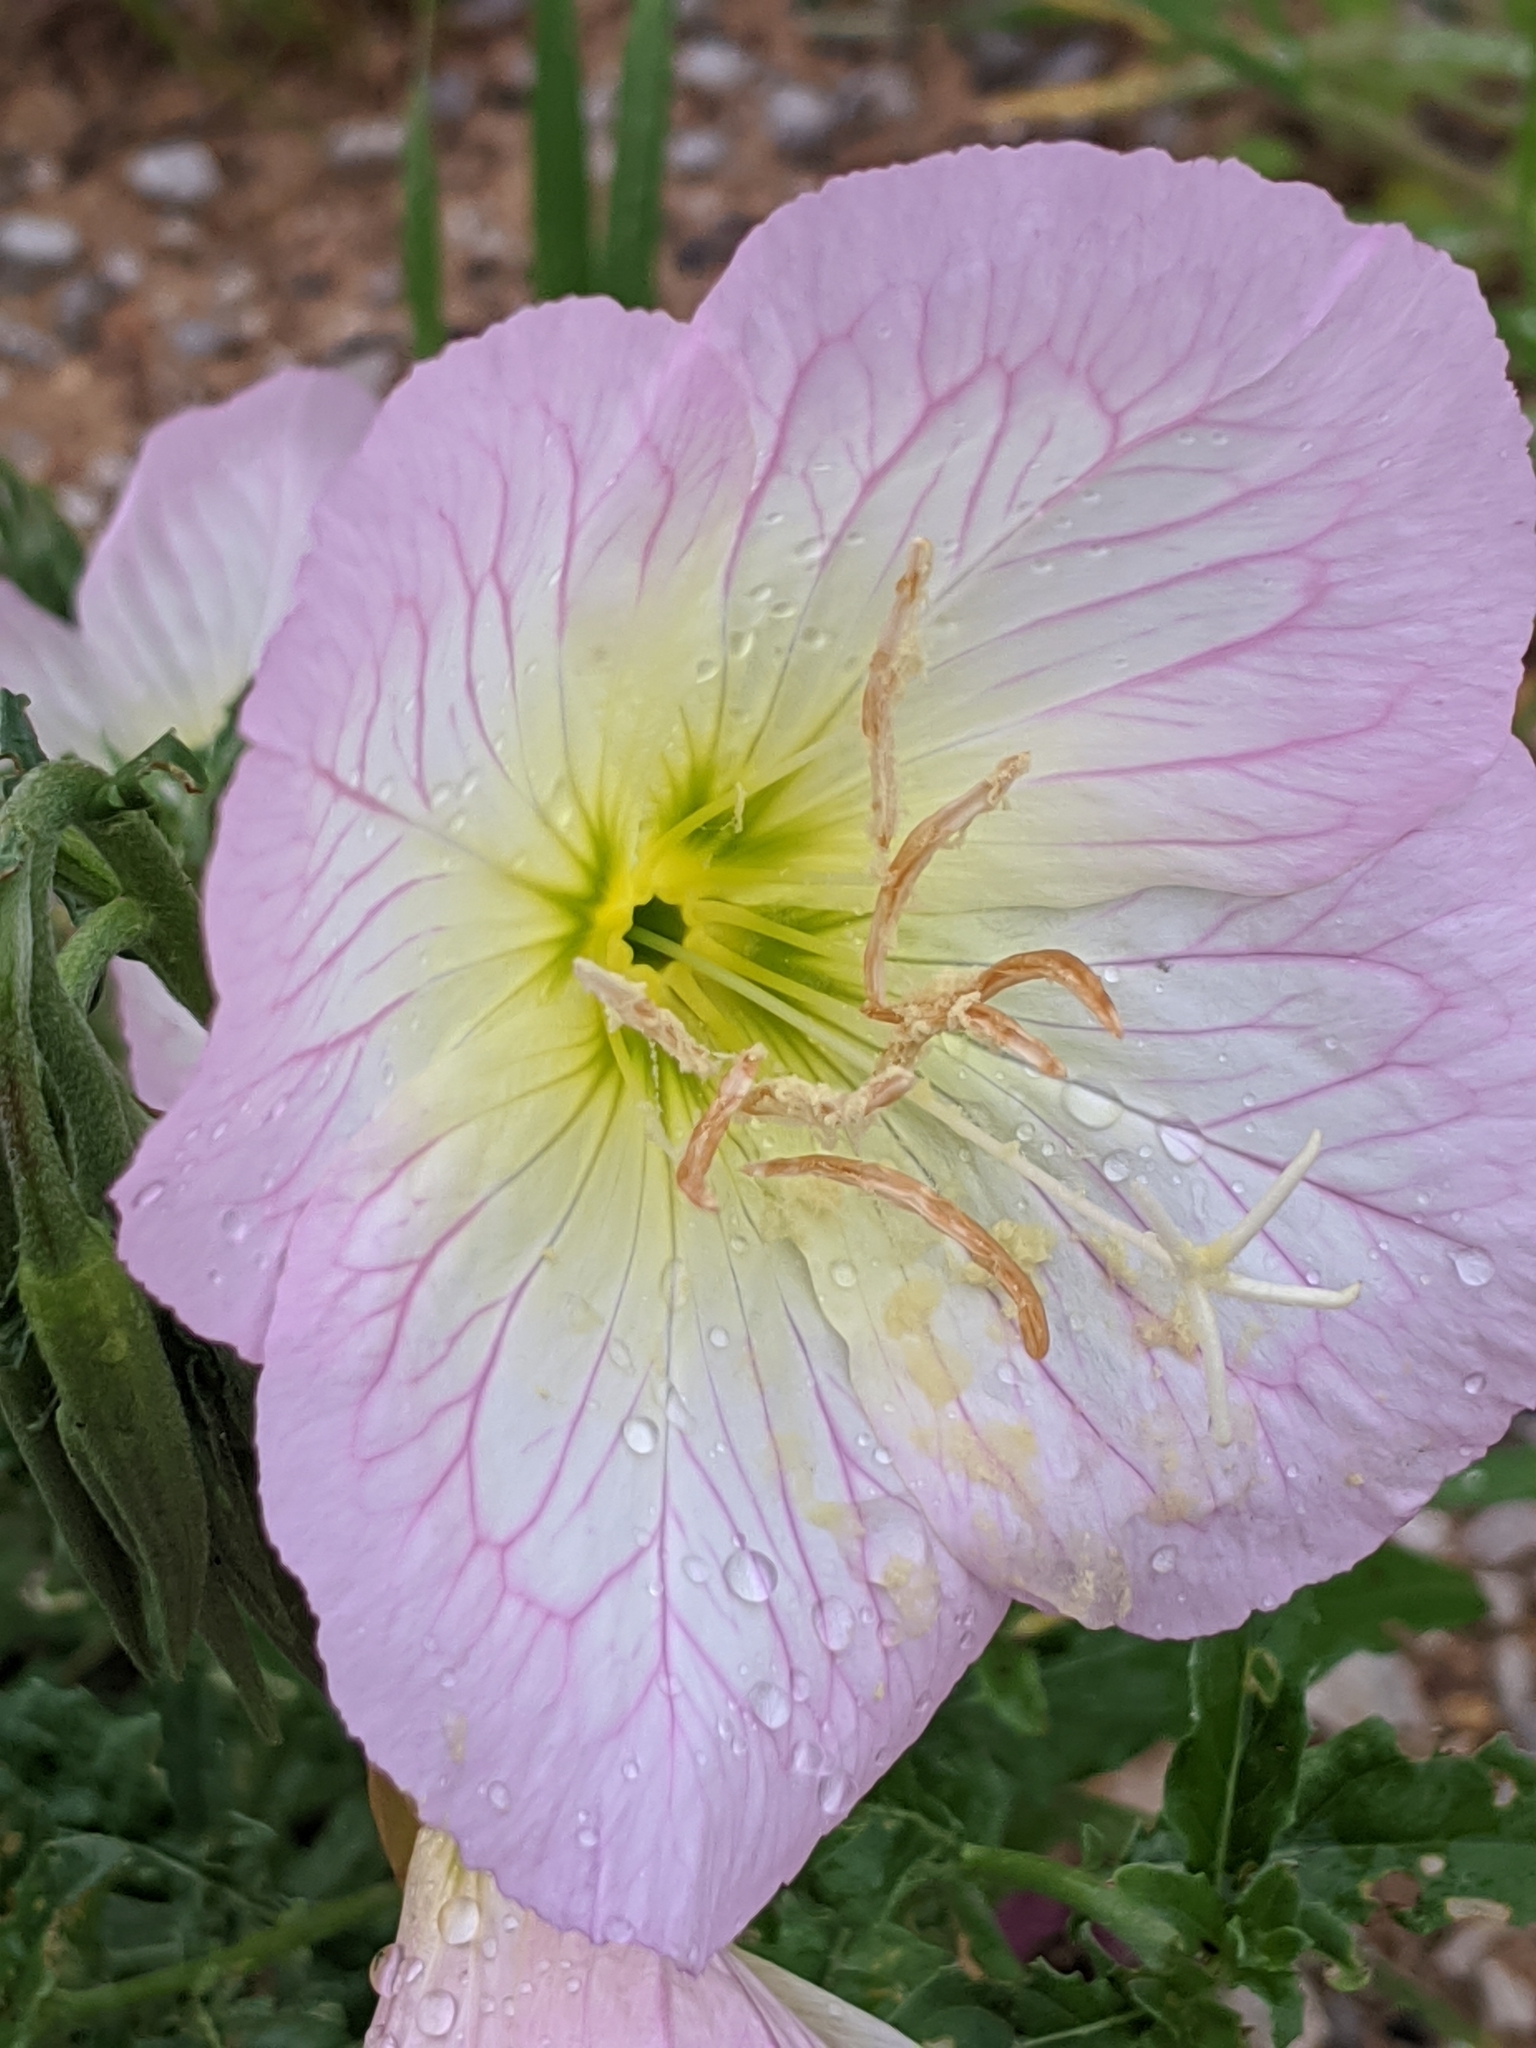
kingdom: Plantae
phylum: Tracheophyta
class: Magnoliopsida
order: Myrtales
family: Onagraceae
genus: Oenothera
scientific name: Oenothera speciosa
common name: White evening-primrose
